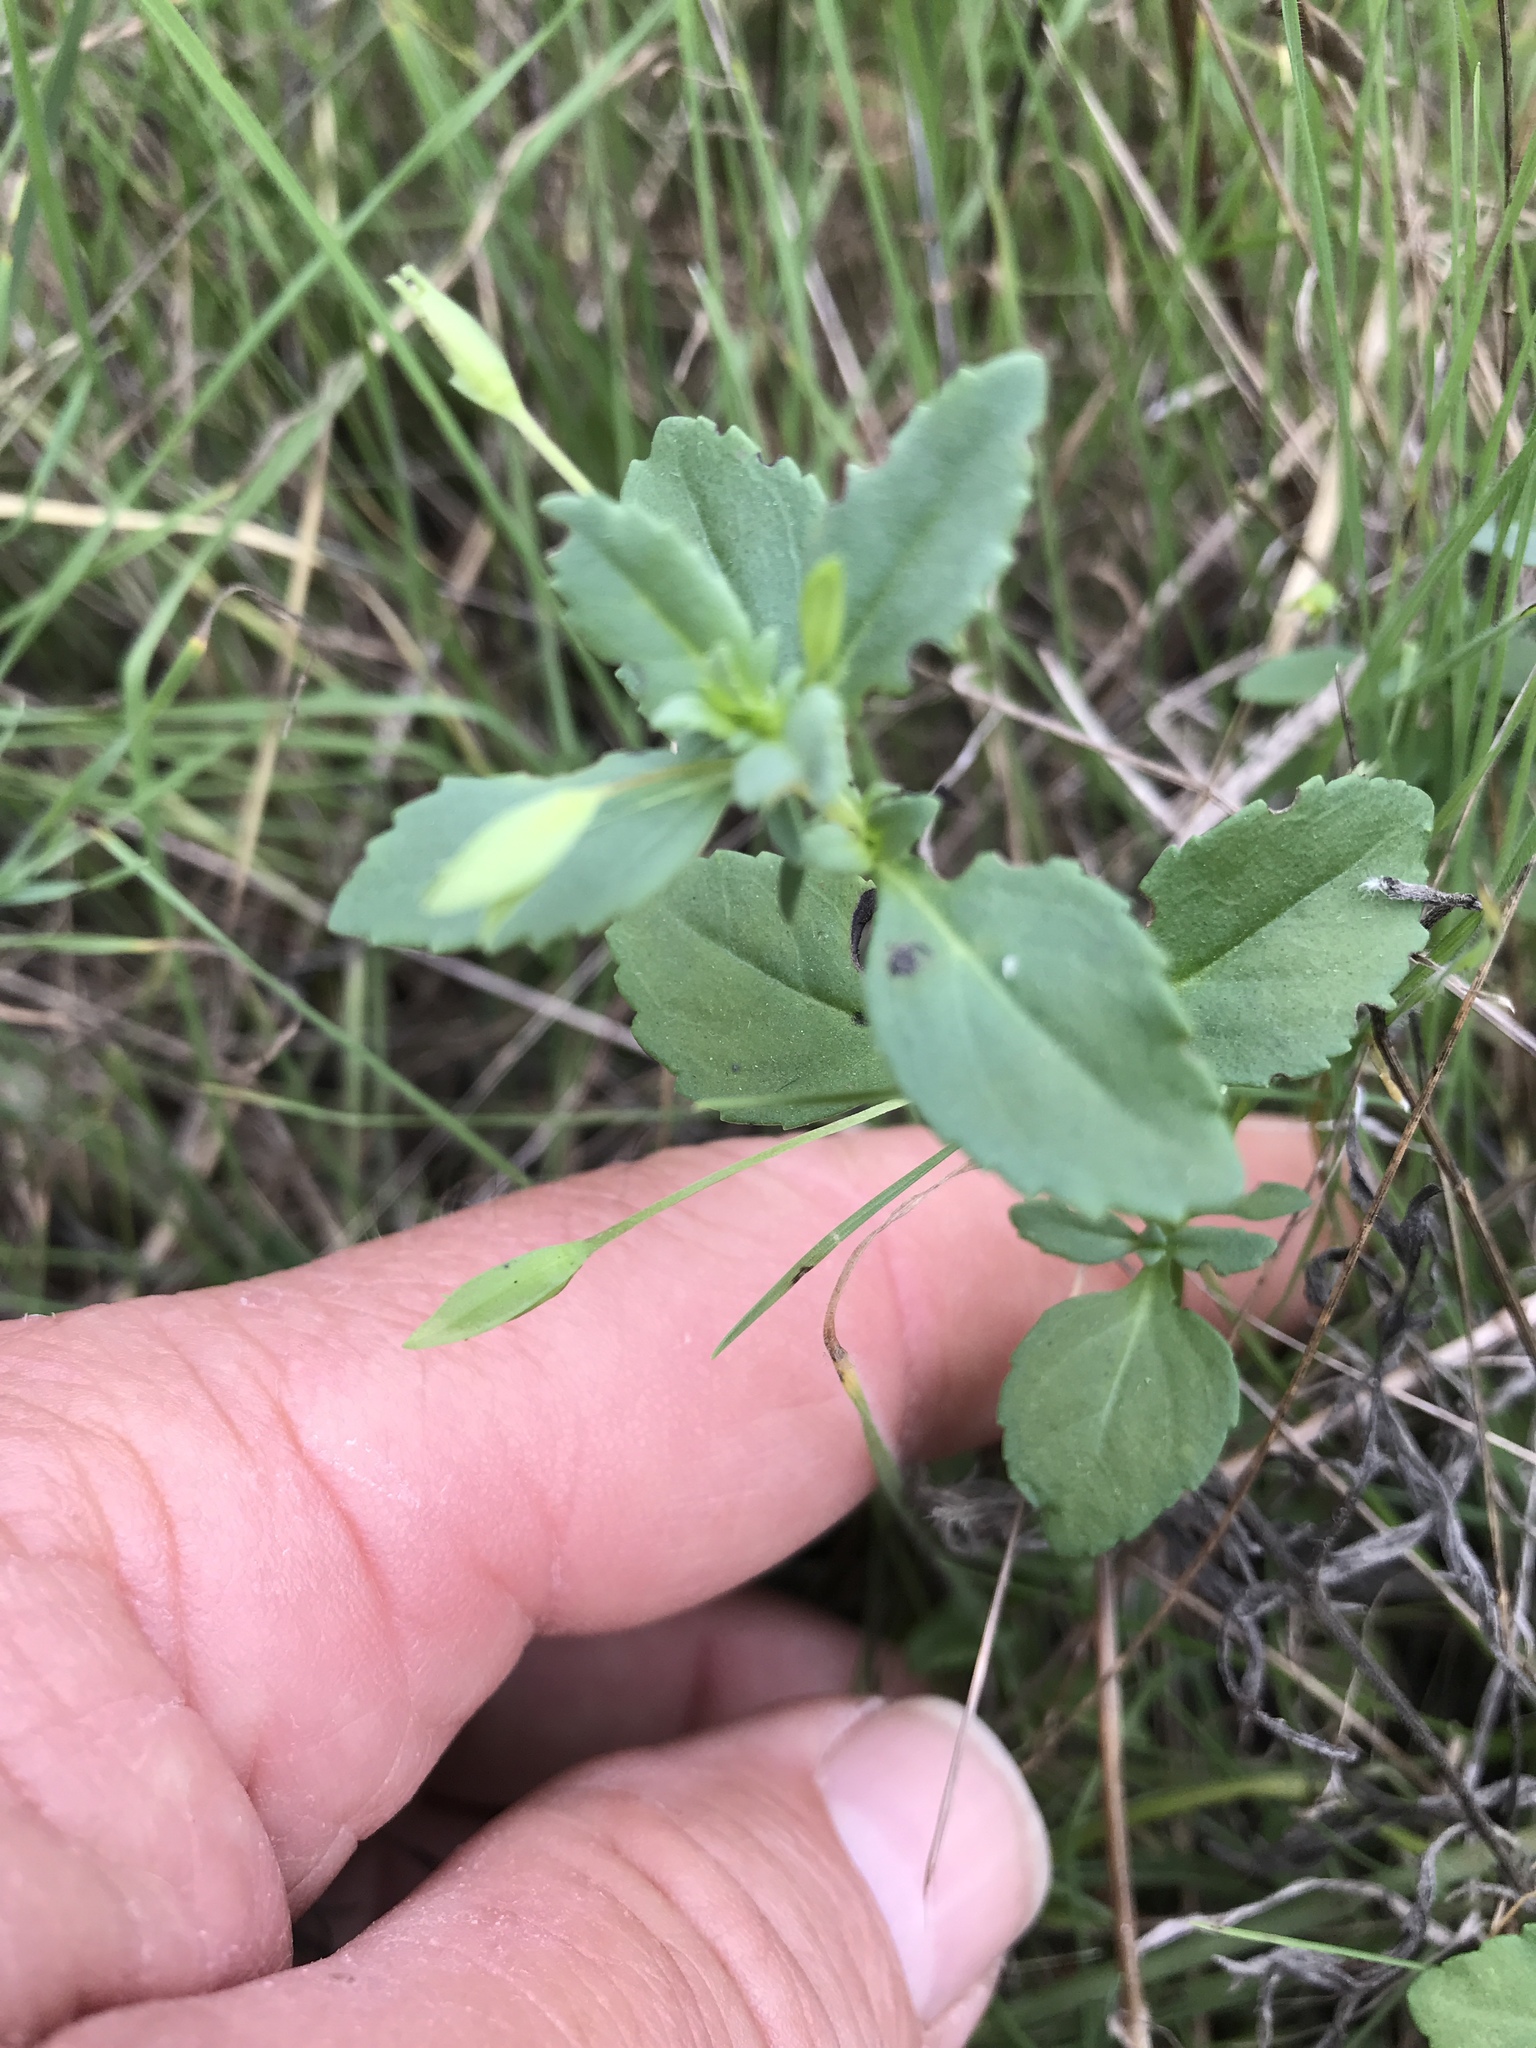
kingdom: Plantae
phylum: Tracheophyta
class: Magnoliopsida
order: Lamiales
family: Plantaginaceae
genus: Mecardonia
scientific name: Mecardonia procumbens
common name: Baby jump-up
